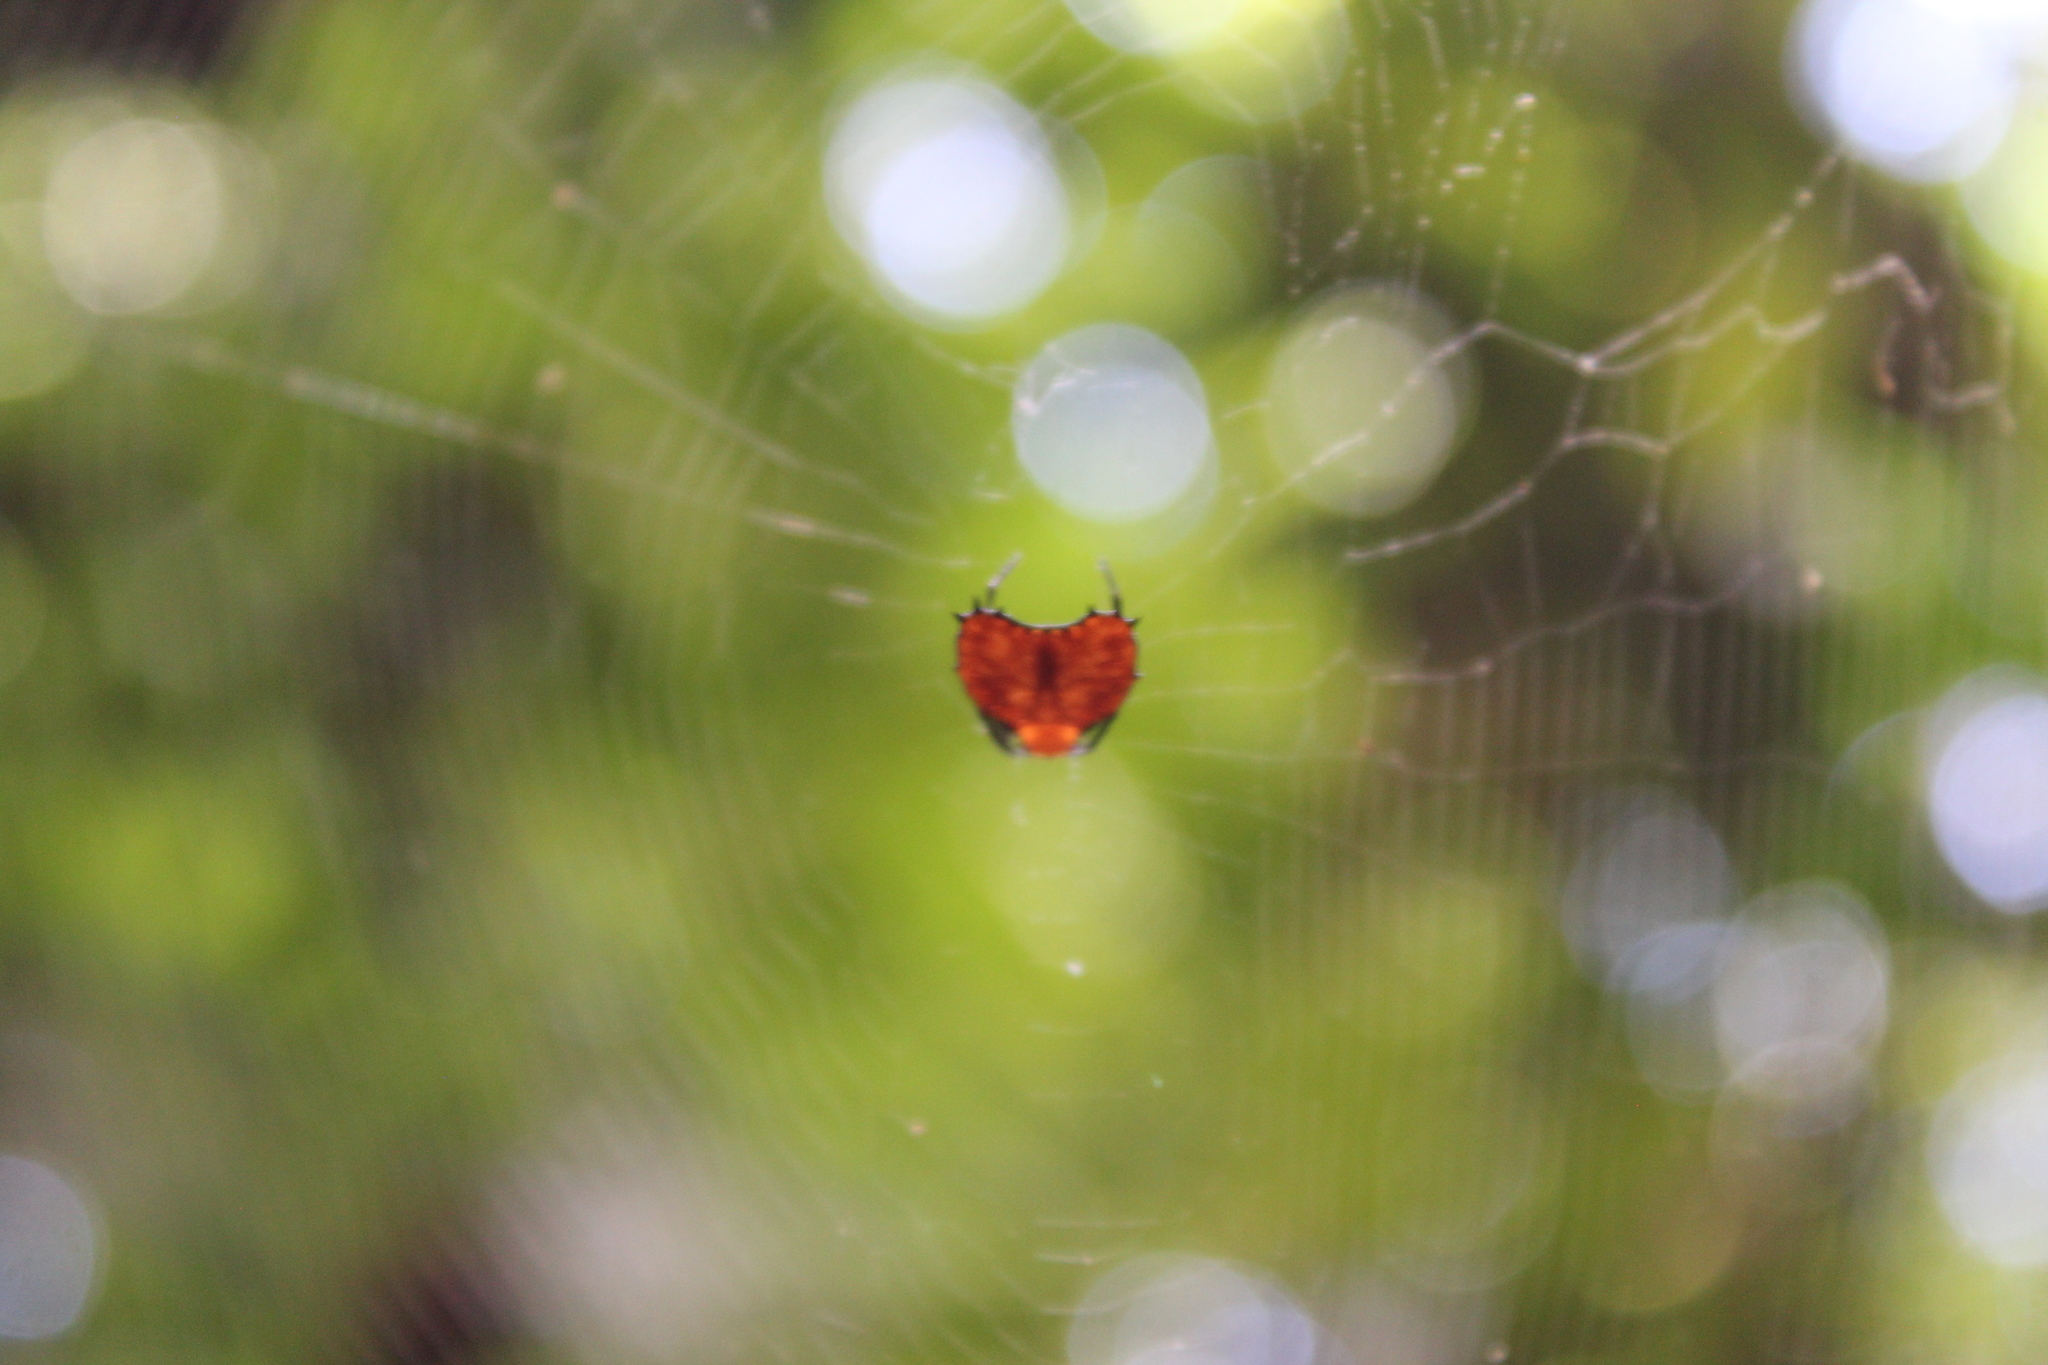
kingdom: Animalia
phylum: Arthropoda
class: Arachnida
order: Araneae
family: Araneidae
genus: Micrathena
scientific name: Micrathena clypeata
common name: Orb weavers
